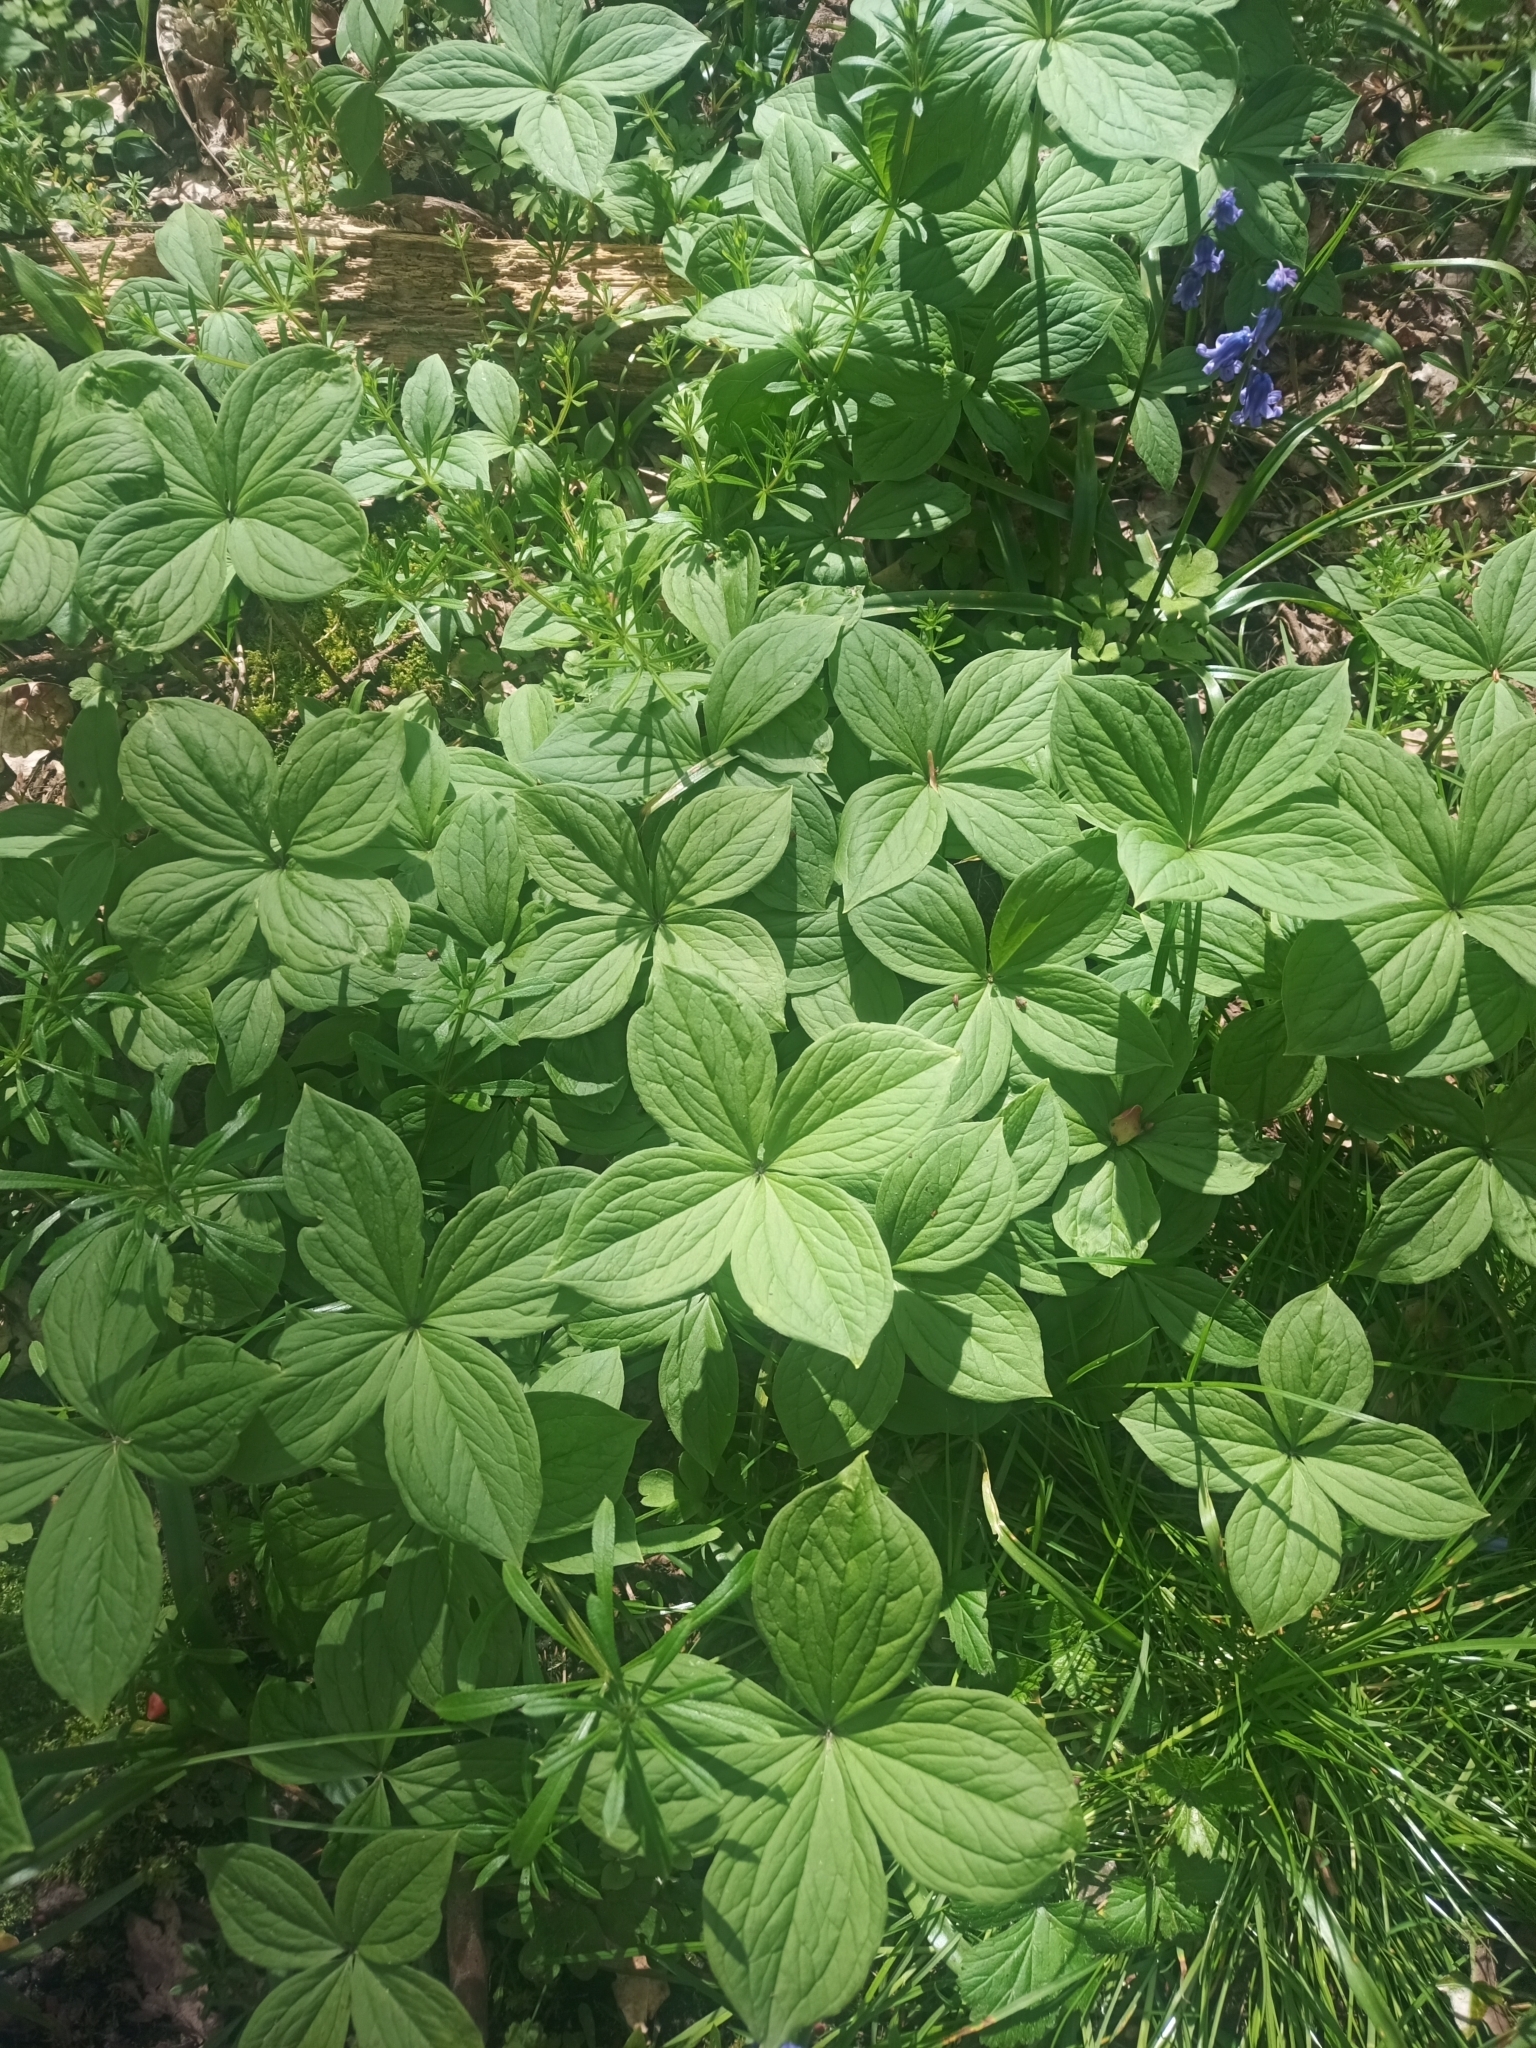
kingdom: Plantae
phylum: Tracheophyta
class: Liliopsida
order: Liliales
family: Melanthiaceae
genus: Paris
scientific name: Paris quadrifolia
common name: Herb-paris
